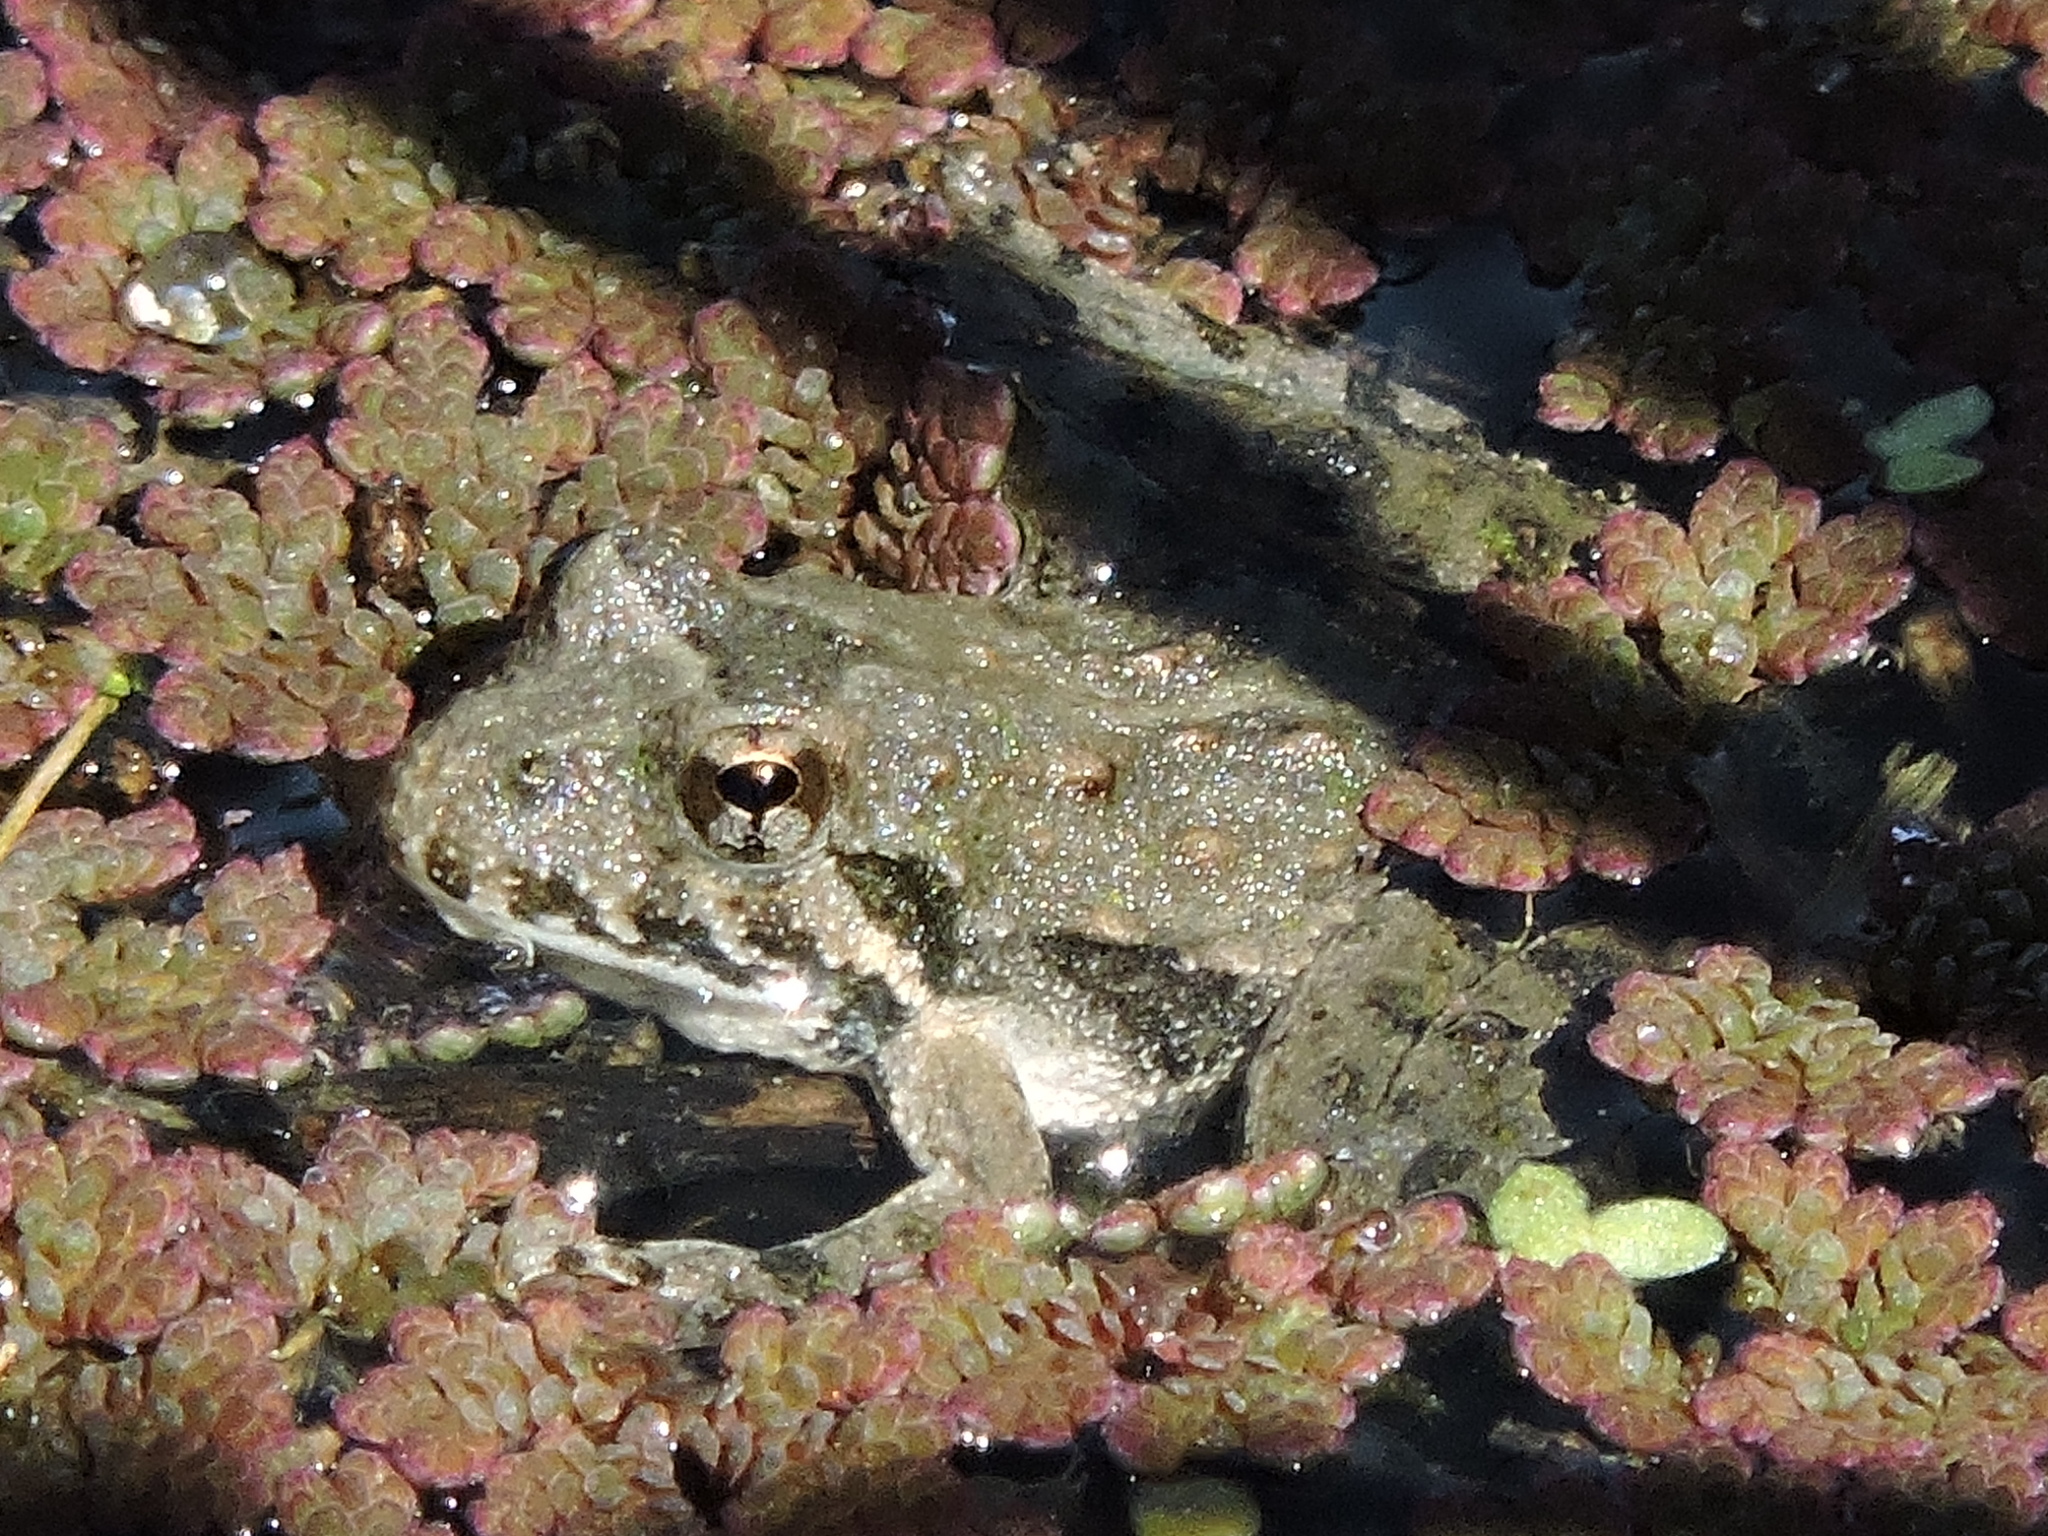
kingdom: Animalia
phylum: Chordata
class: Amphibia
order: Anura
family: Hylidae
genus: Acris
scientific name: Acris blanchardi
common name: Blanchard's cricket frog
